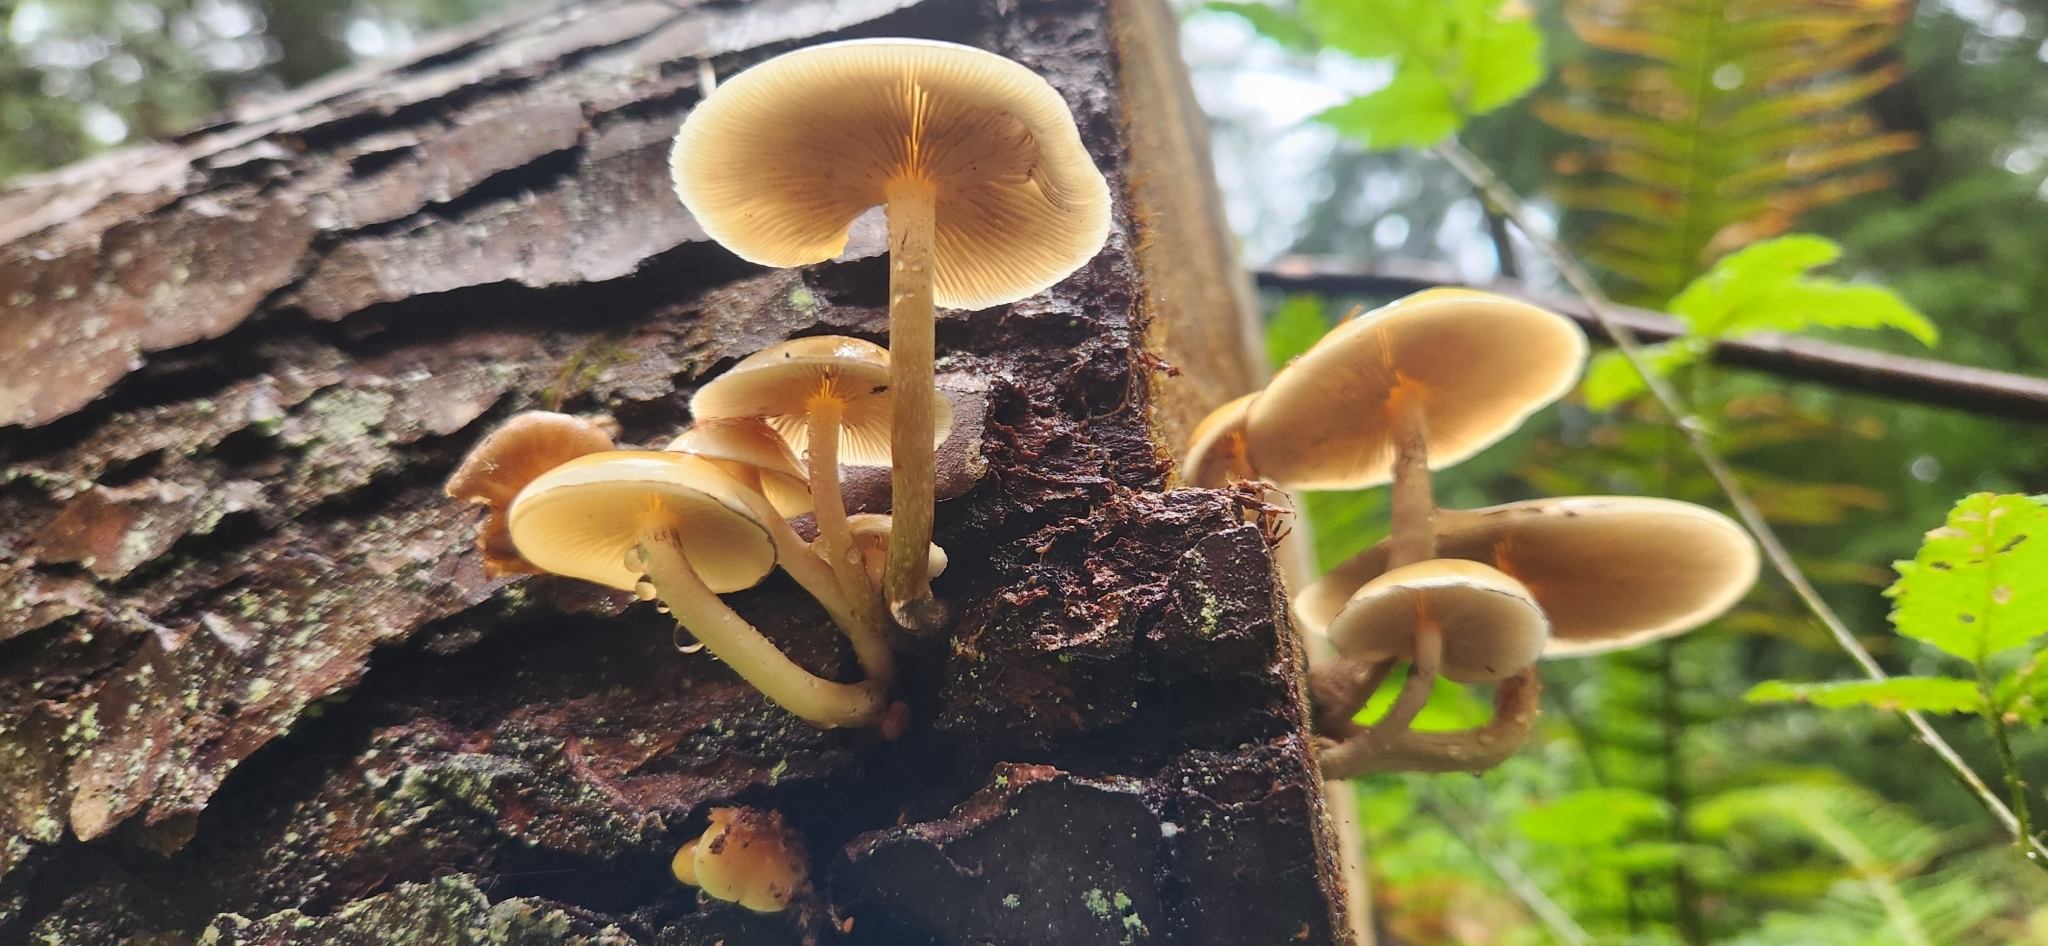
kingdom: Fungi
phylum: Basidiomycota
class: Agaricomycetes
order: Agaricales
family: Strophariaceae
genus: Hypholoma
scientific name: Hypholoma capnoides
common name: Conifer tuft
